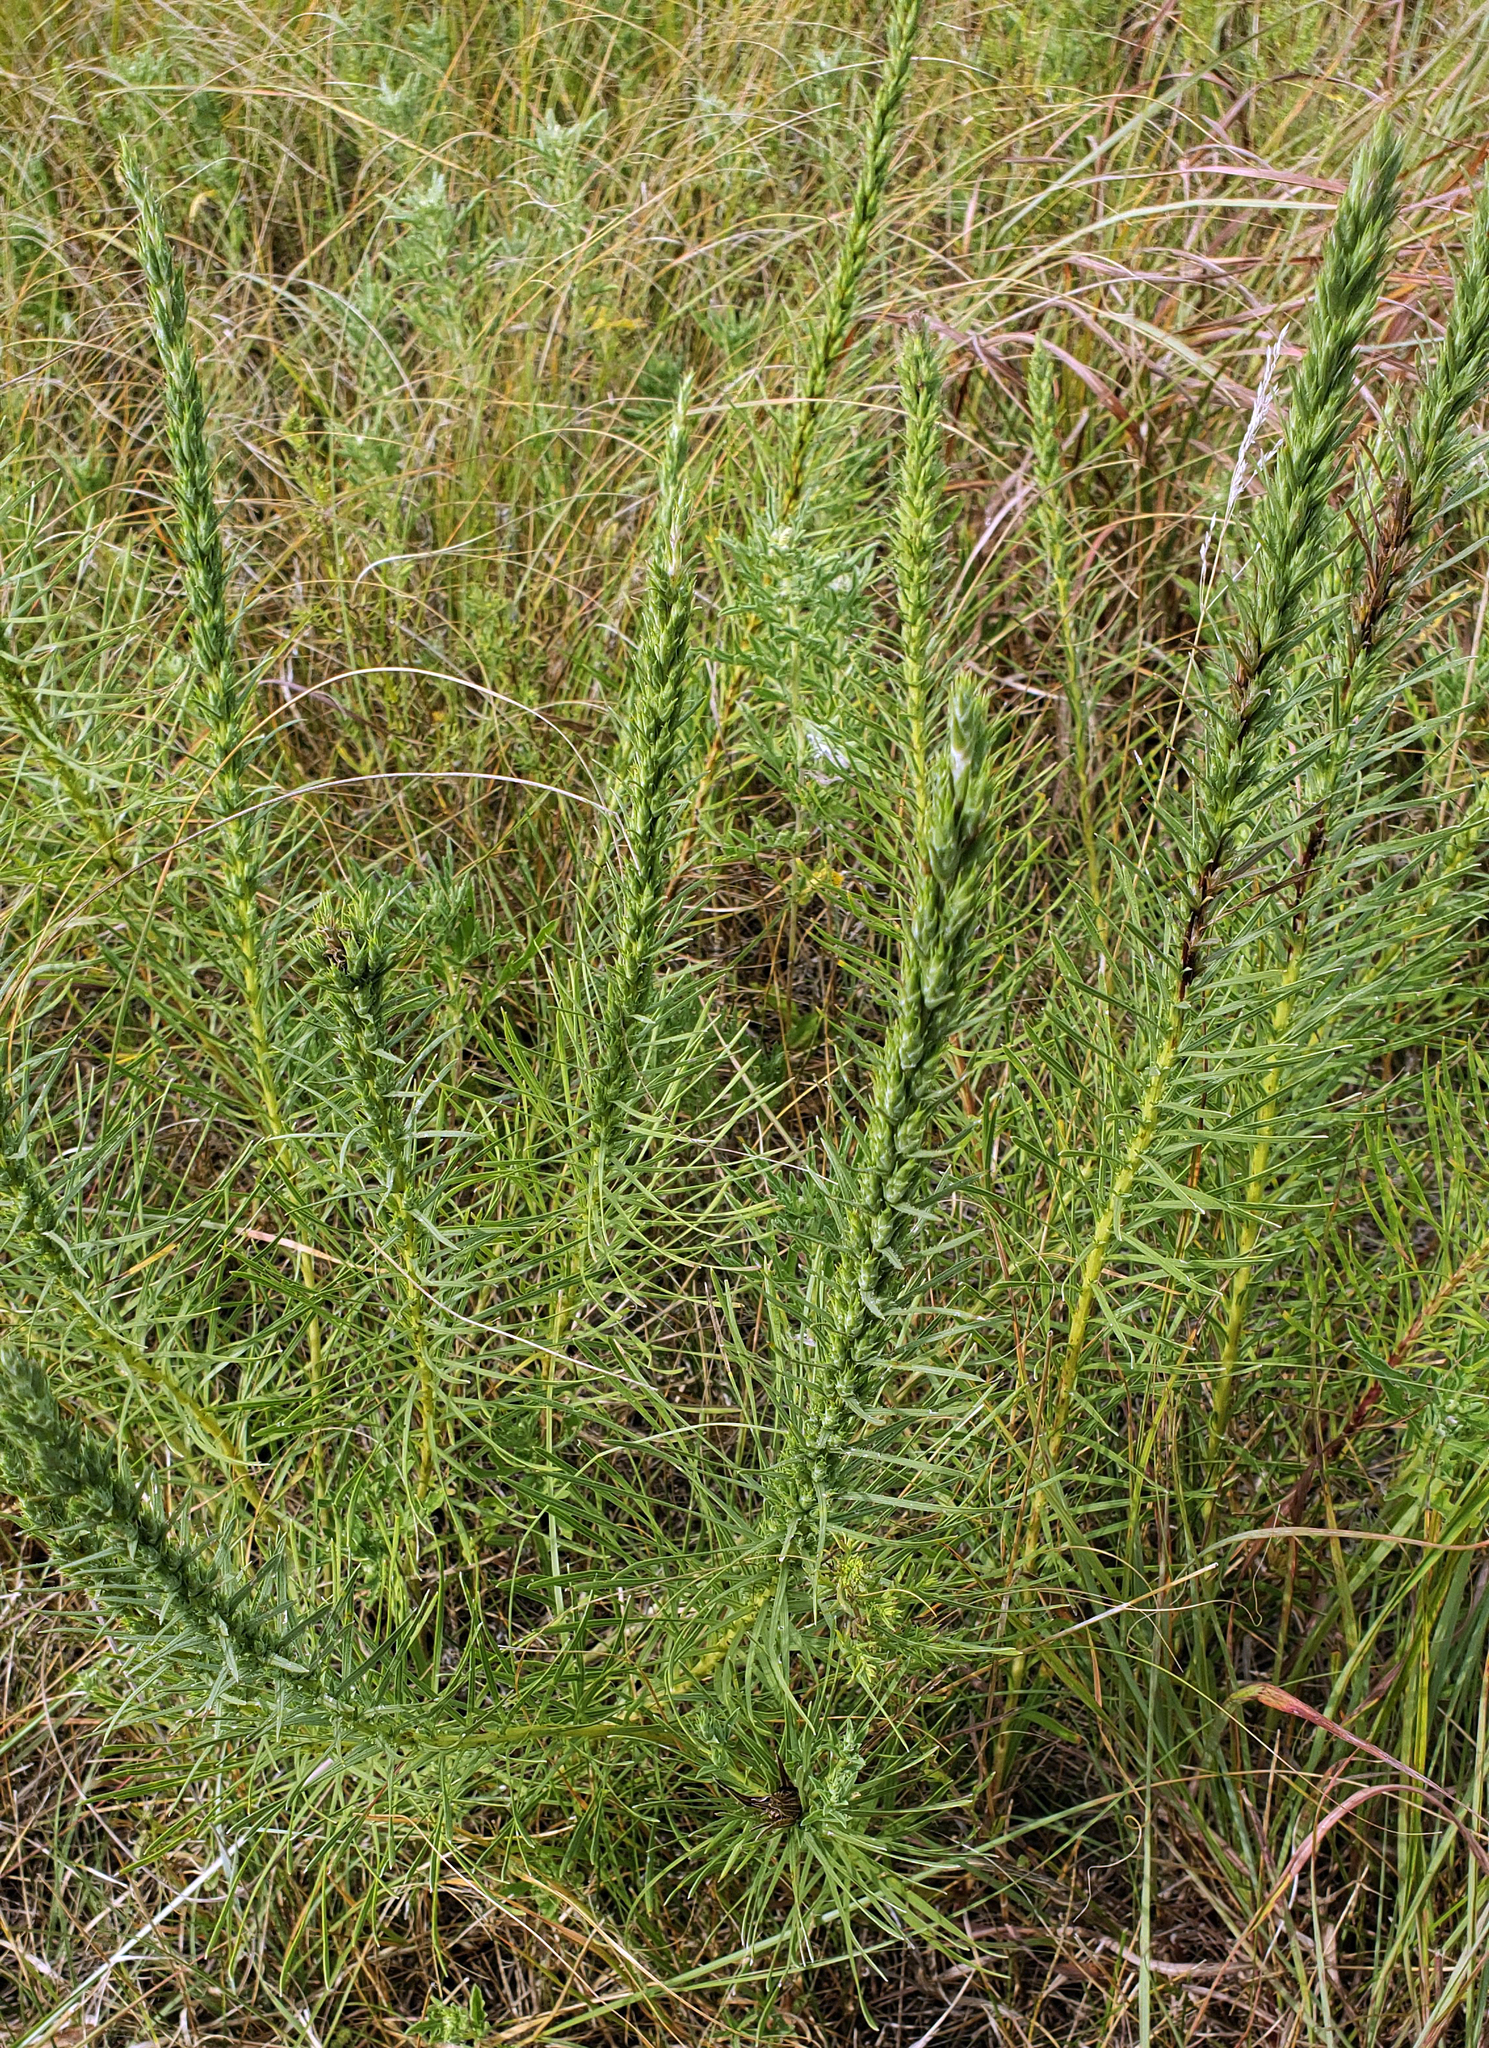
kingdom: Plantae
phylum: Tracheophyta
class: Magnoliopsida
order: Asterales
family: Asteraceae
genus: Liatris
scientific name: Liatris punctata
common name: Dotted gayfeather
